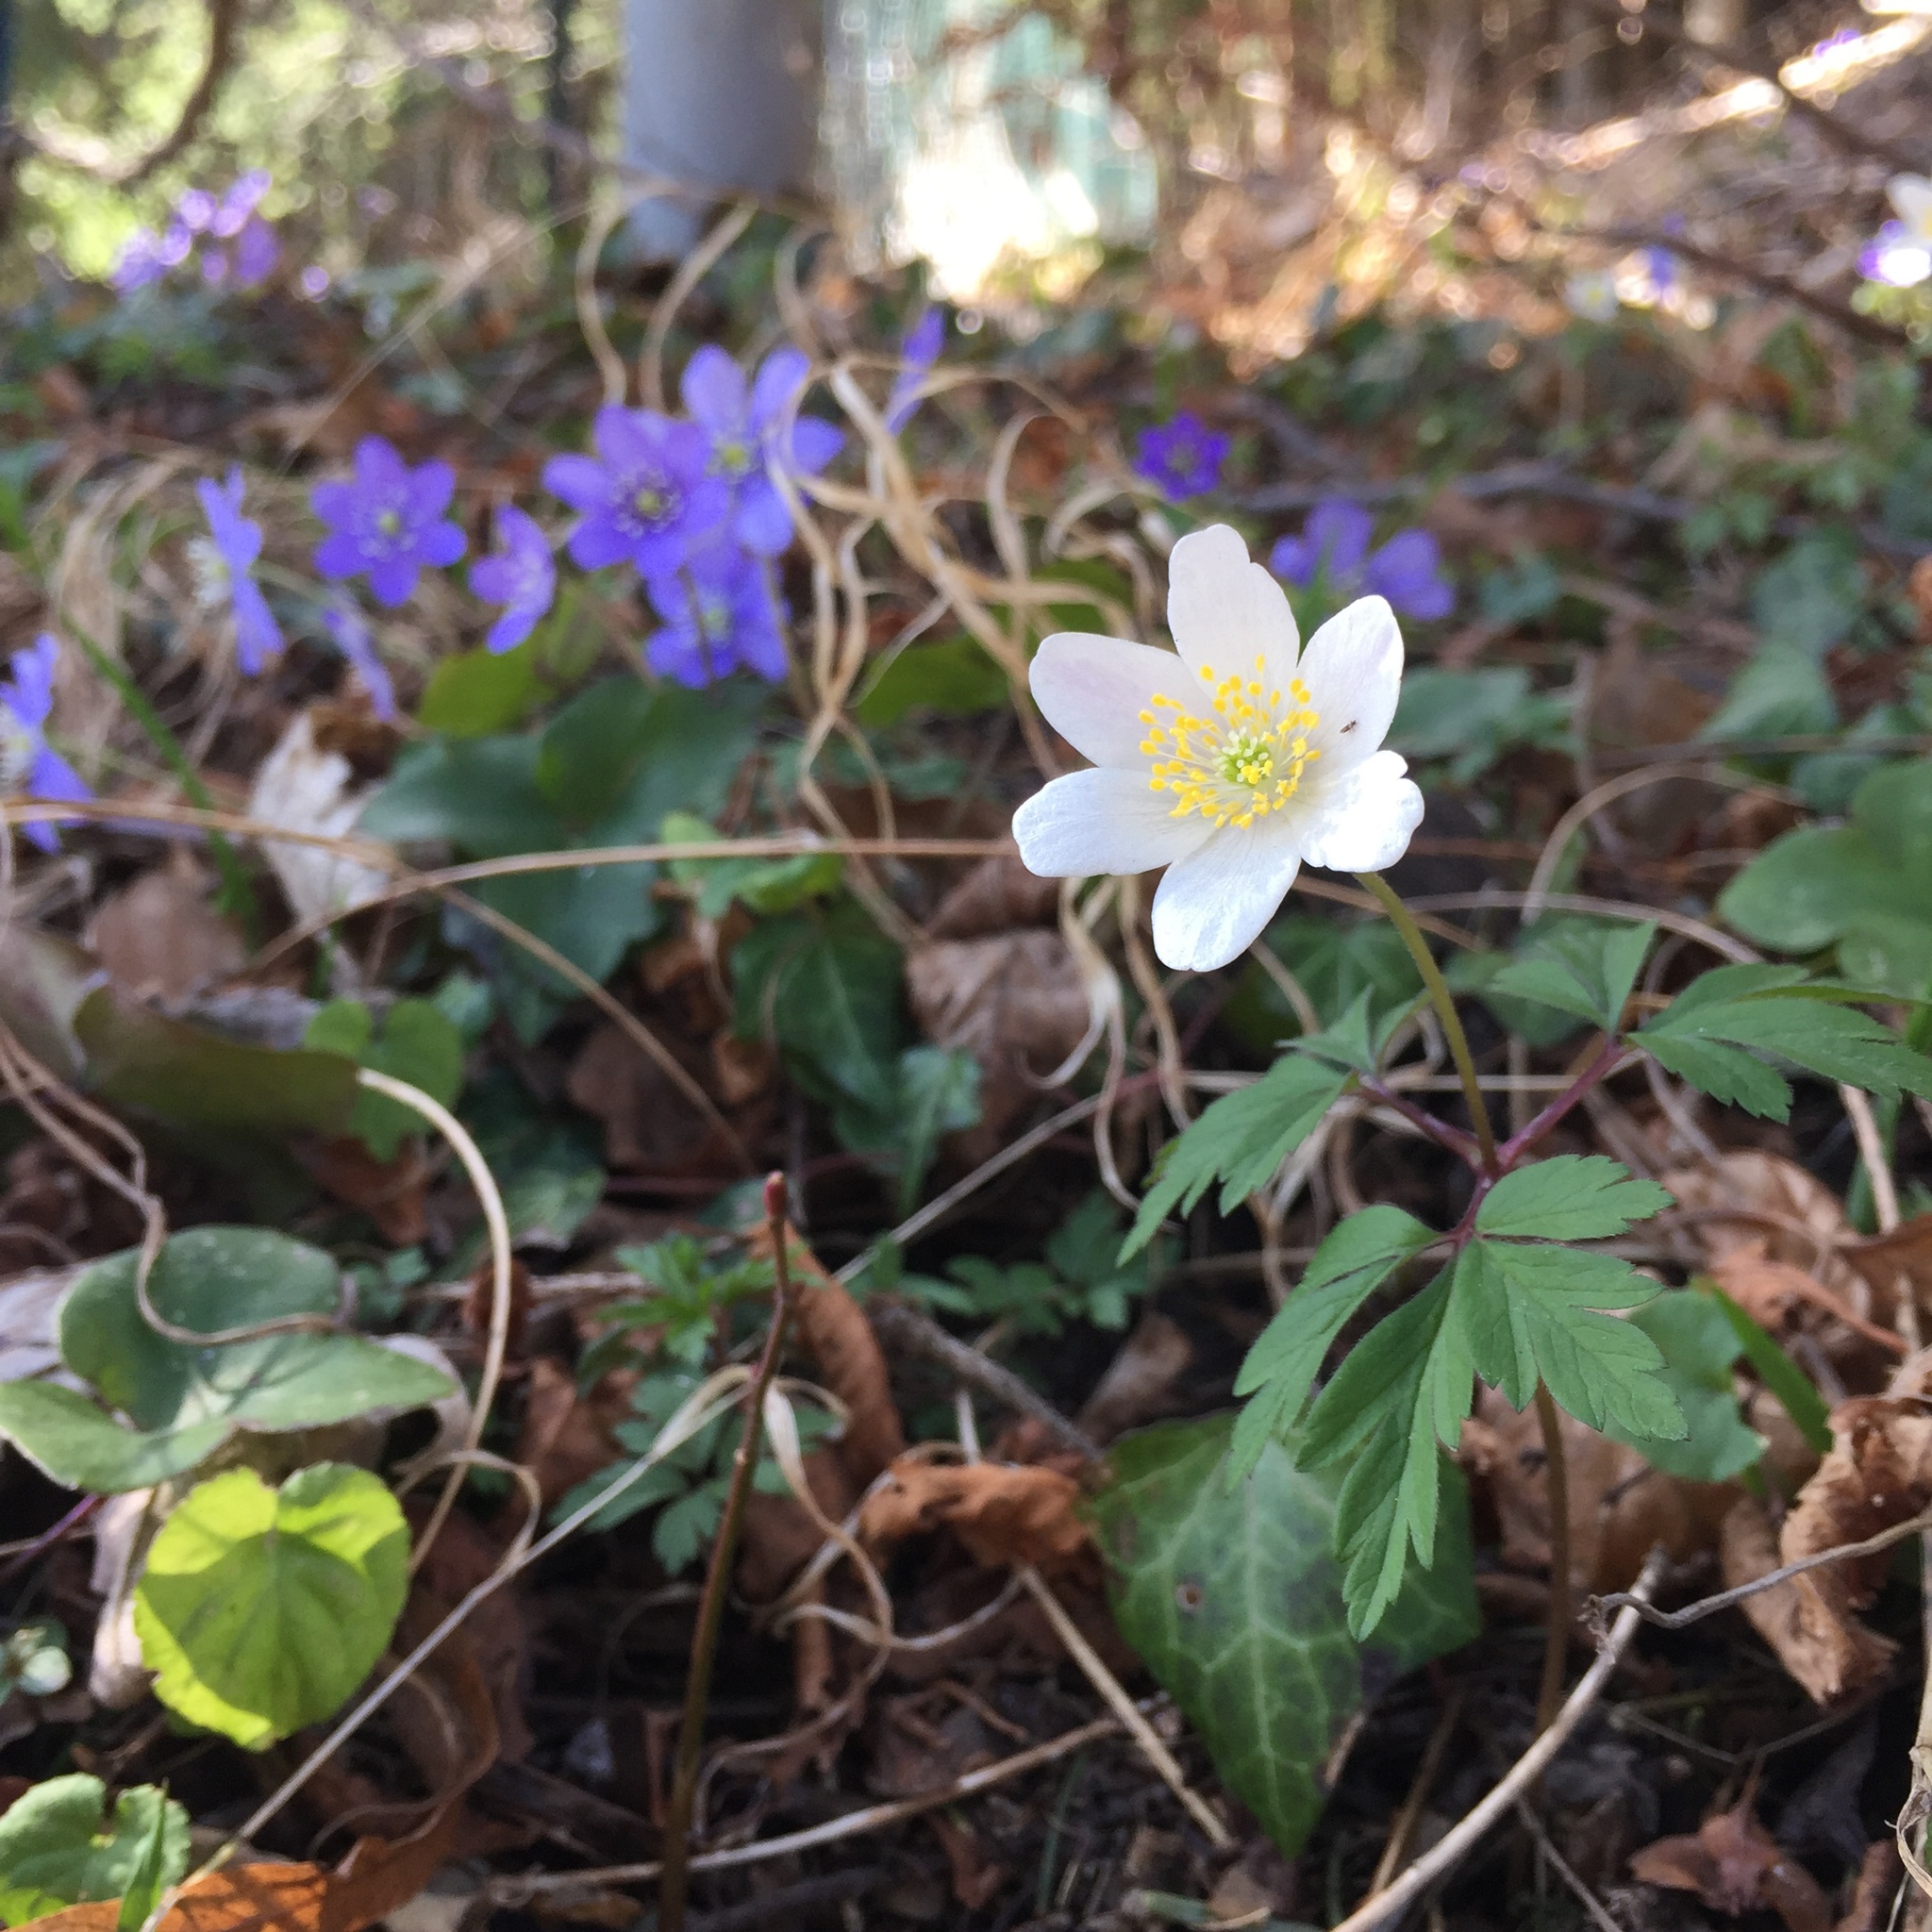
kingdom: Plantae
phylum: Tracheophyta
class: Magnoliopsida
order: Ranunculales
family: Ranunculaceae
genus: Anemone
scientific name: Anemone nemorosa
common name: Wood anemone
